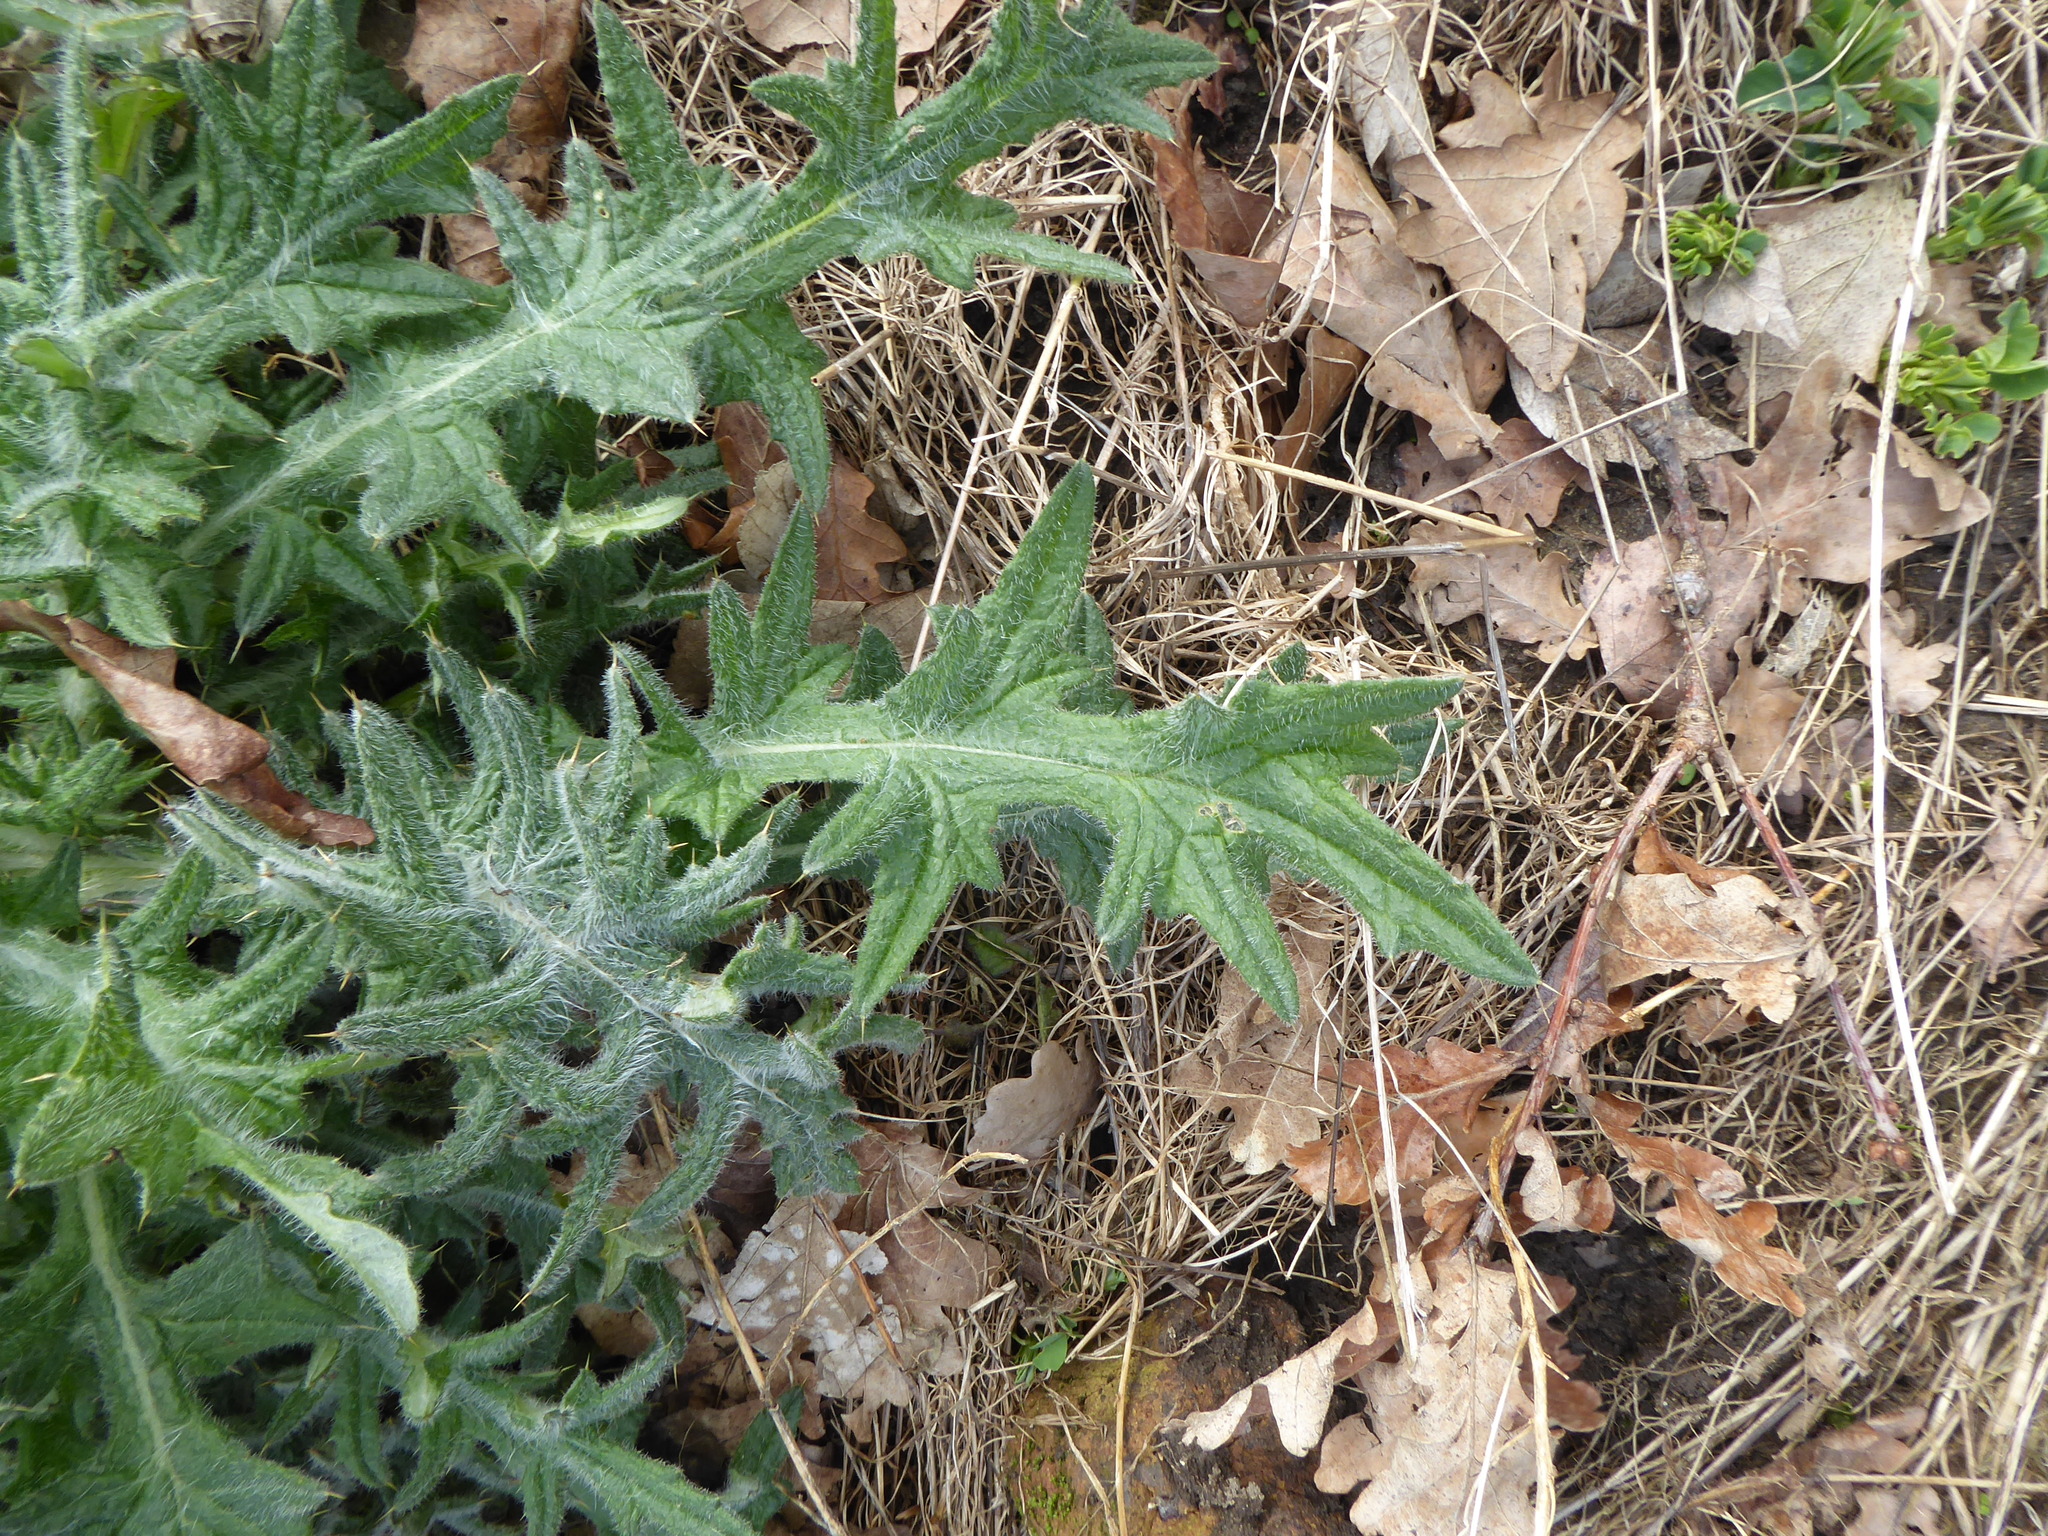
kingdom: Plantae
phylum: Tracheophyta
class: Magnoliopsida
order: Asterales
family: Asteraceae
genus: Cirsium
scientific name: Cirsium vulgare
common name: Bull thistle
